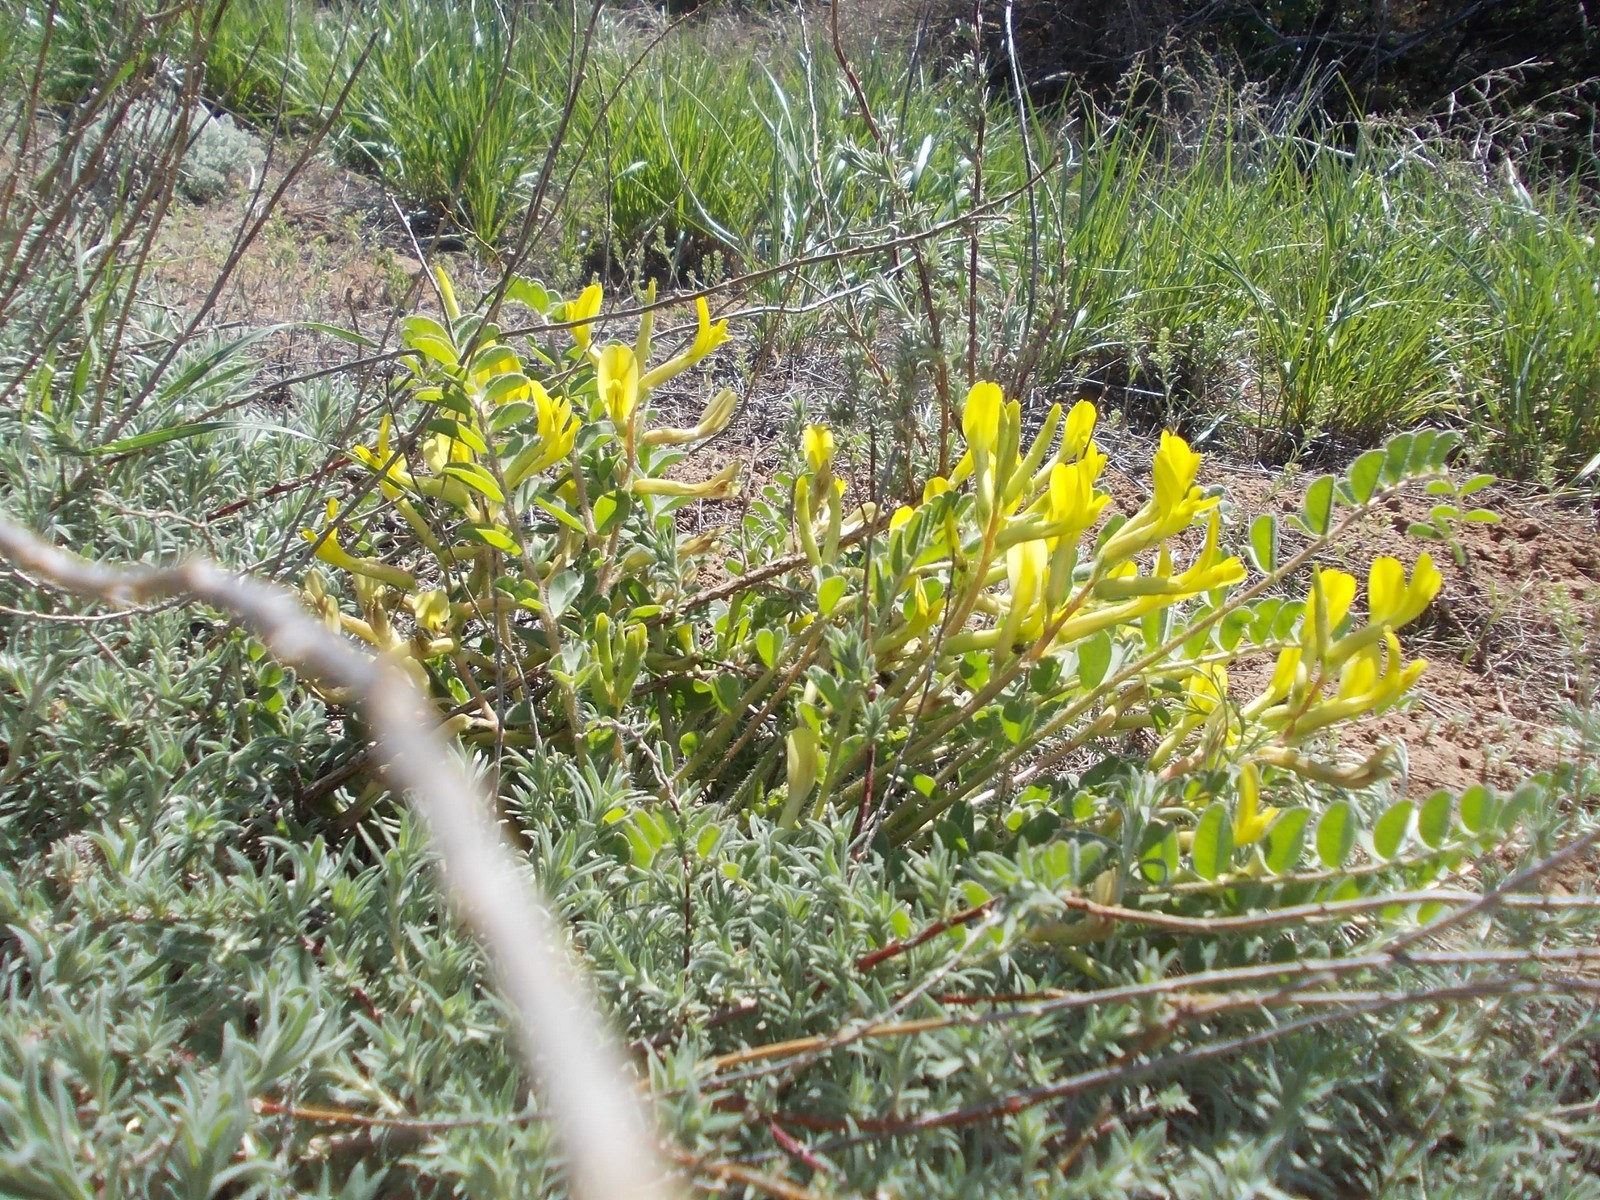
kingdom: Plantae
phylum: Tracheophyta
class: Magnoliopsida
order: Fabales
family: Fabaceae
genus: Astragalus
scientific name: Astragalus longipetalus
